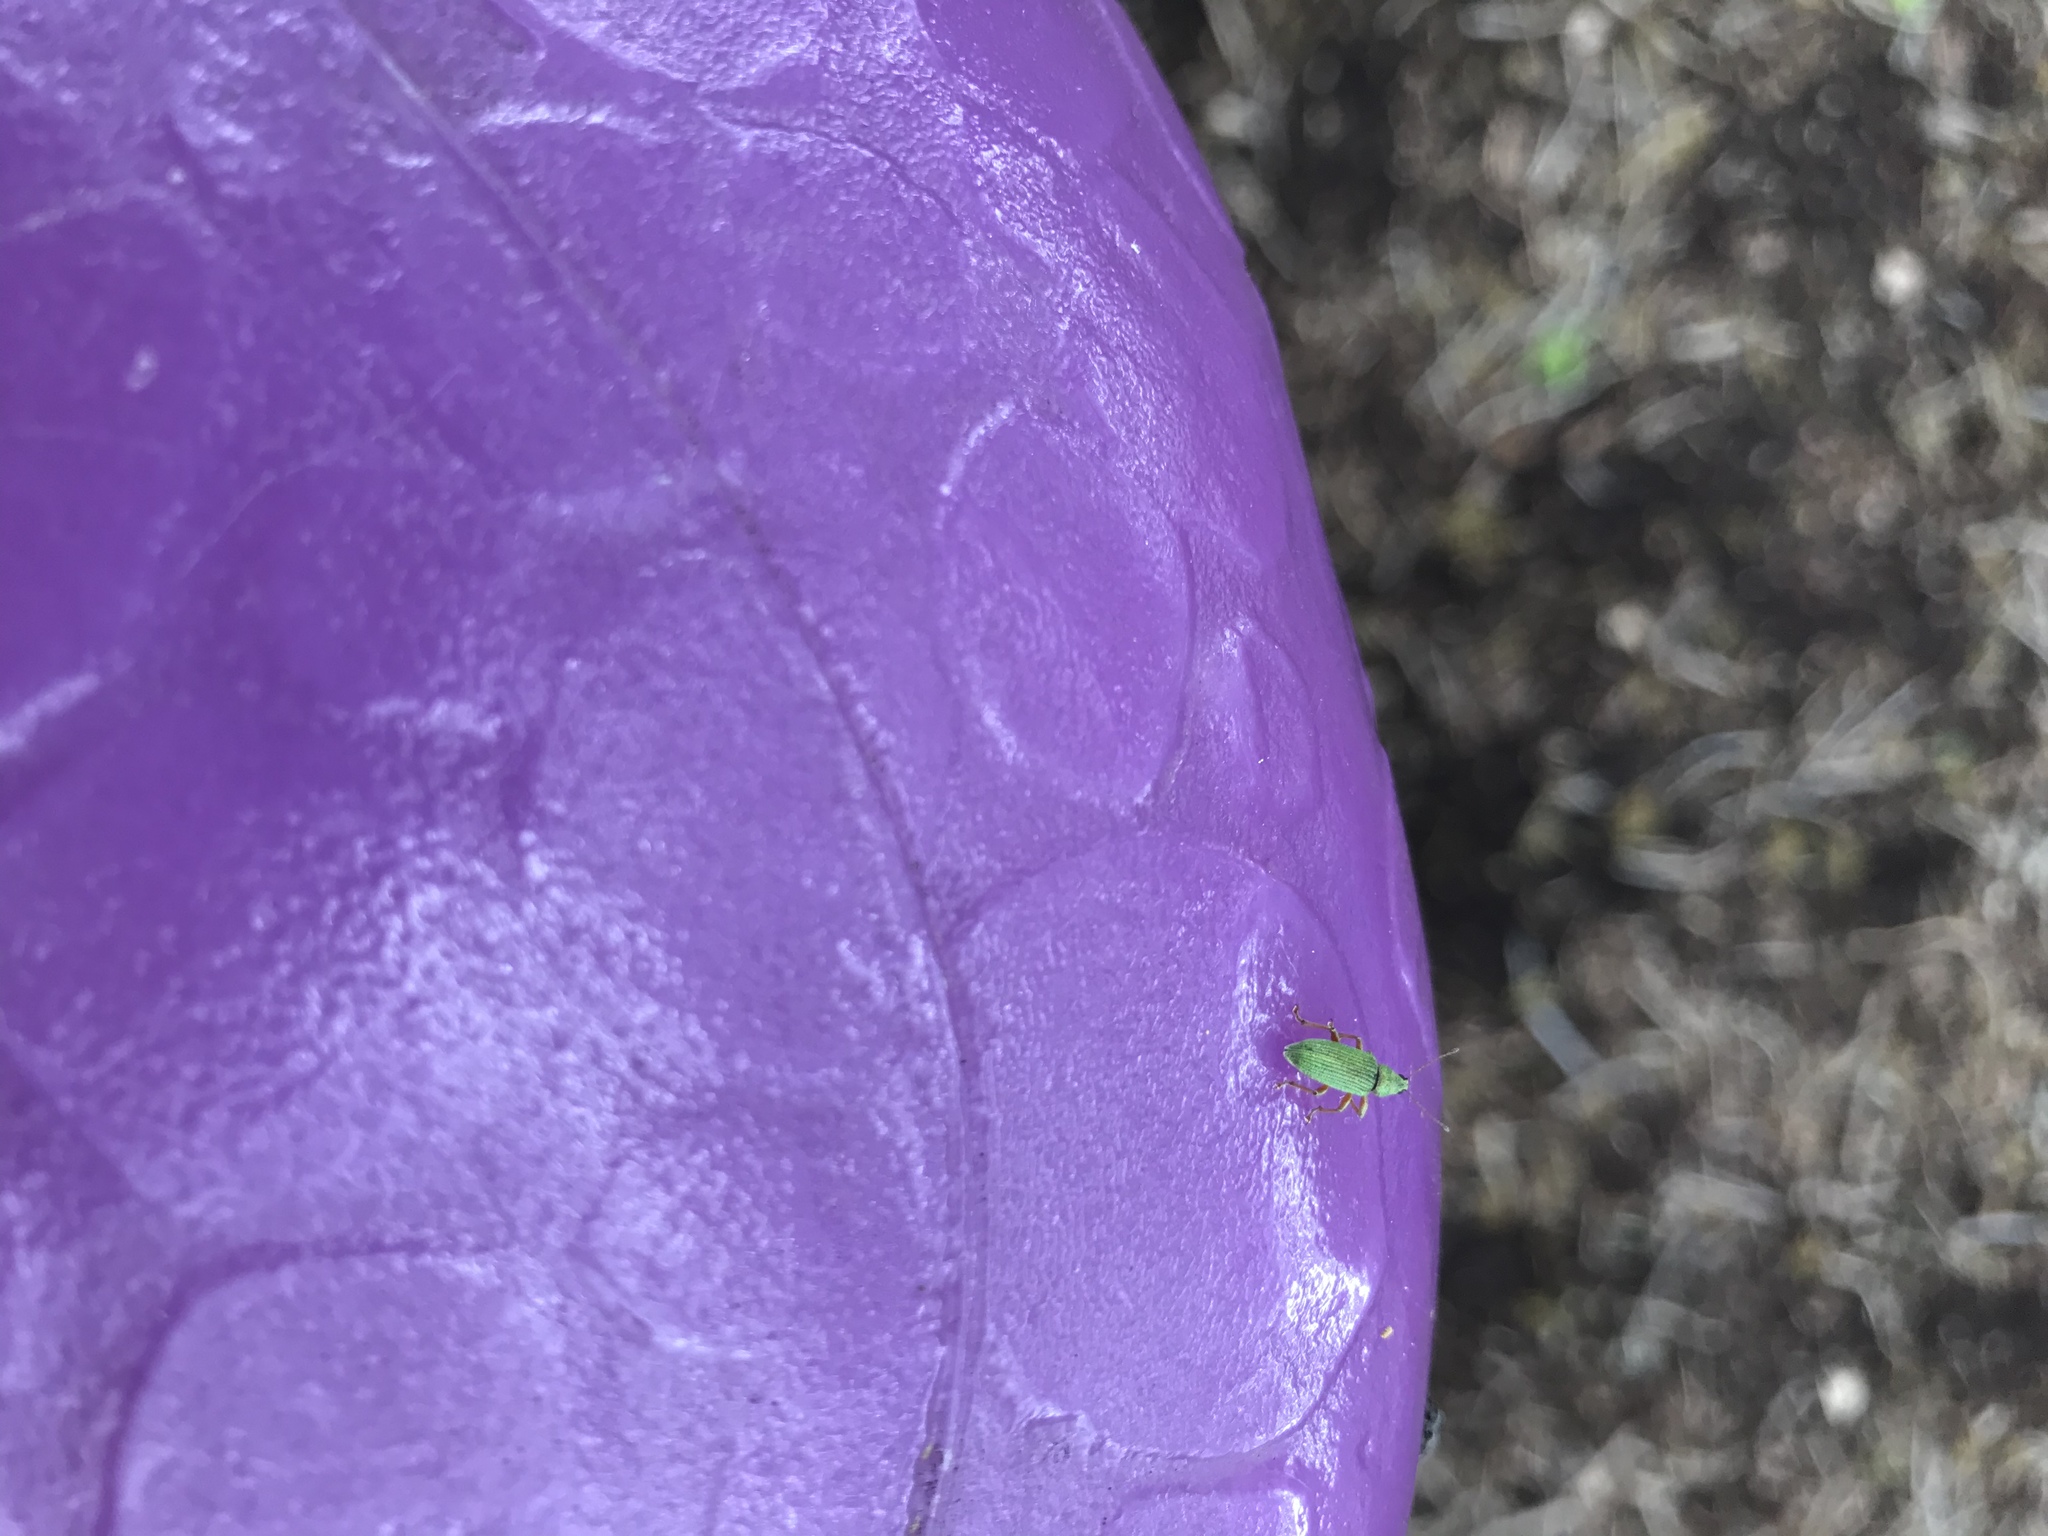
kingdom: Animalia
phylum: Arthropoda
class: Insecta
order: Coleoptera
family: Curculionidae
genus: Polydrusus
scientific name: Polydrusus formosus
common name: Weevil
